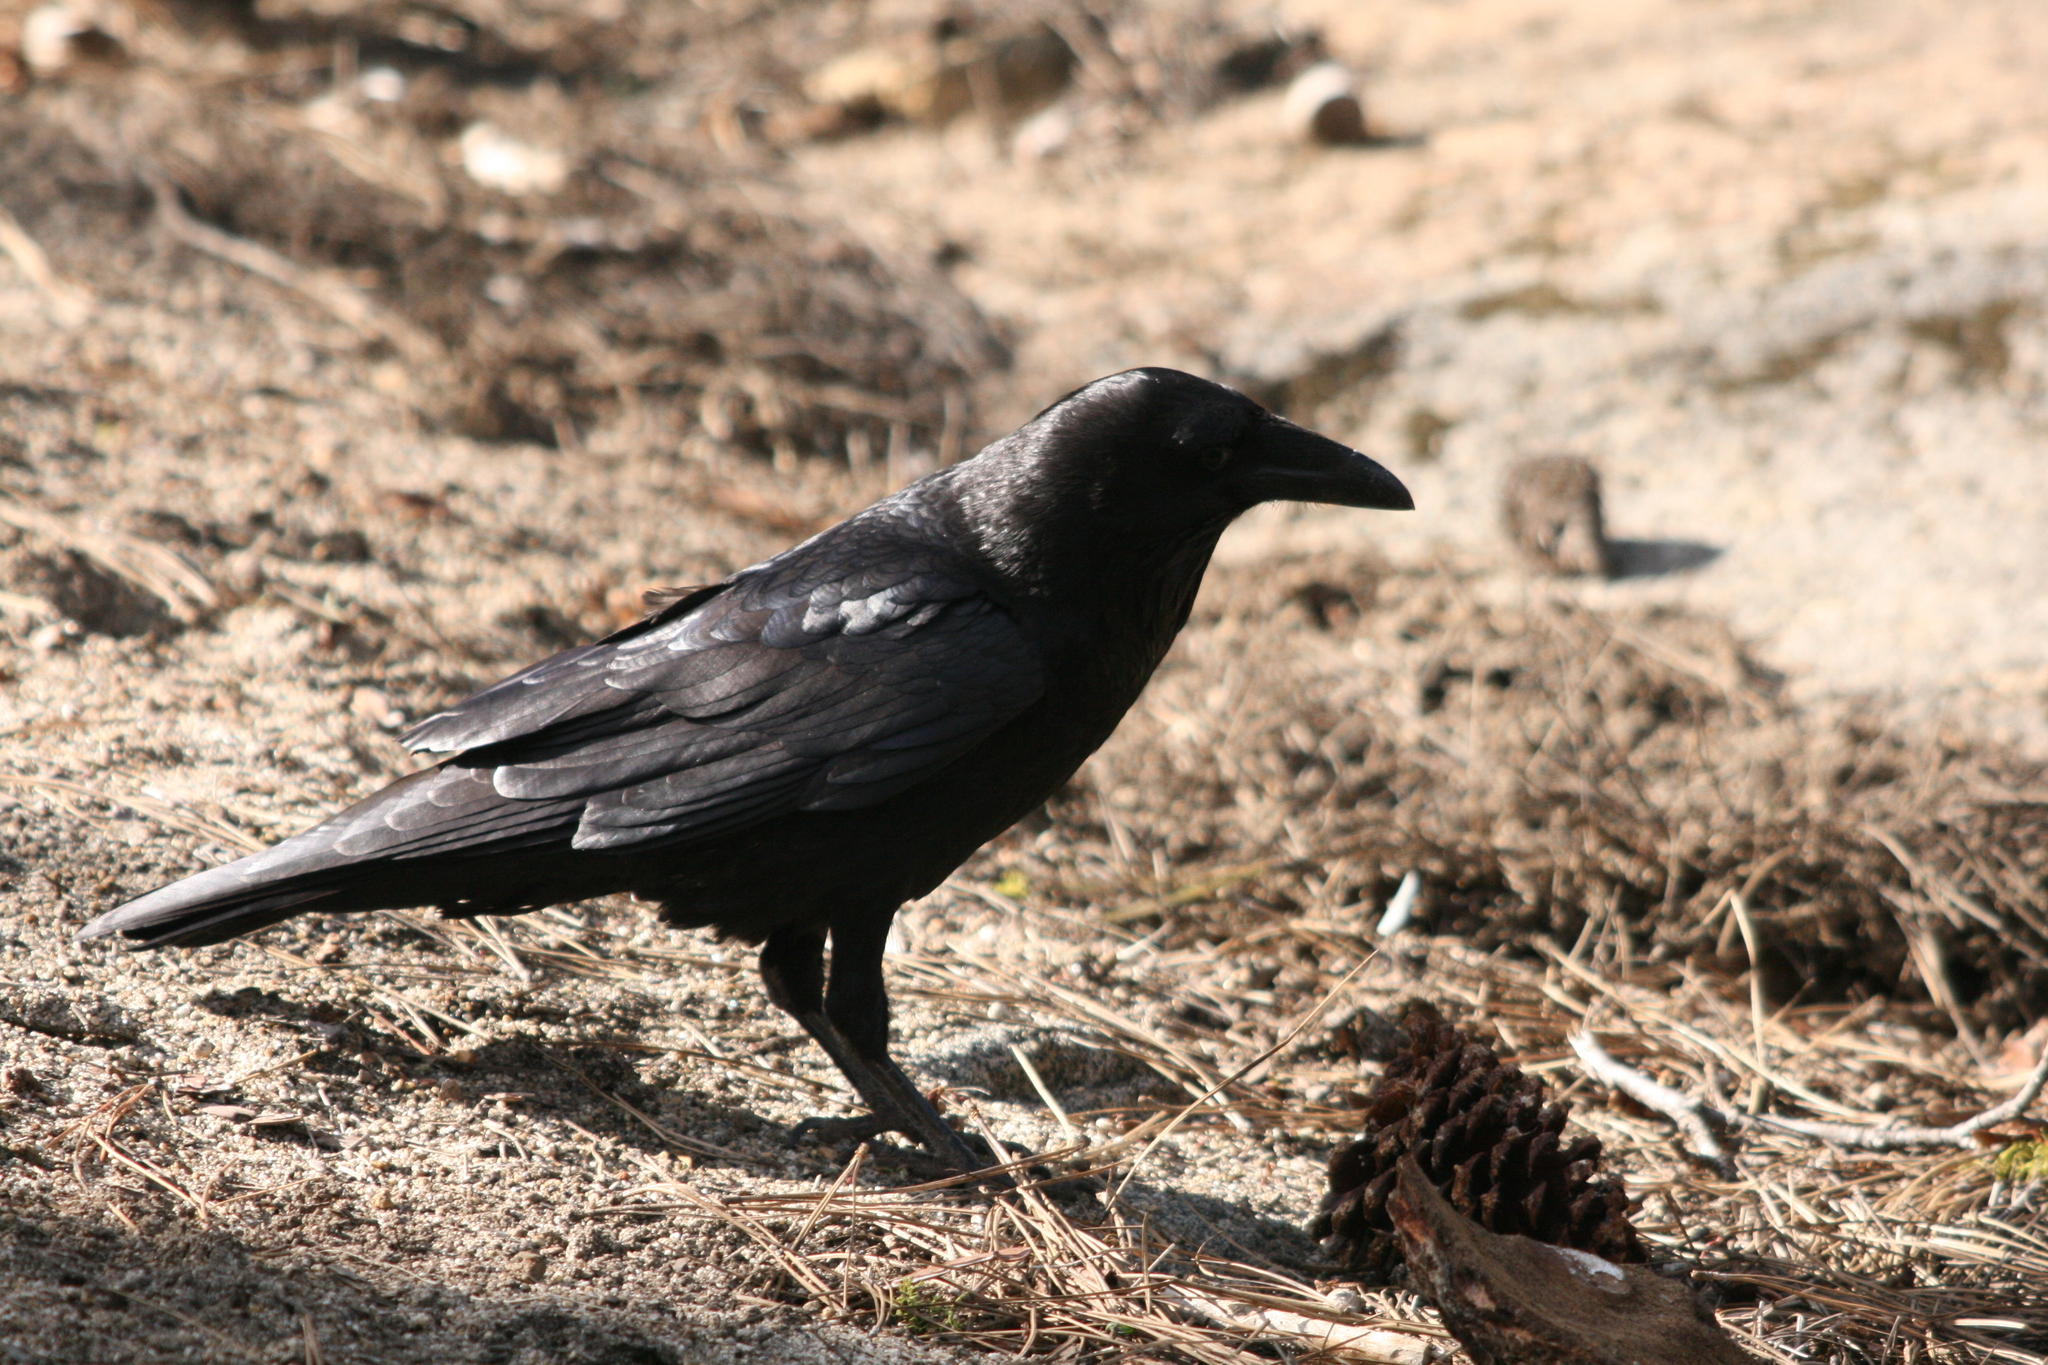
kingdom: Animalia
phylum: Chordata
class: Aves
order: Passeriformes
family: Corvidae
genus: Corvus
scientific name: Corvus corax
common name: Common raven
